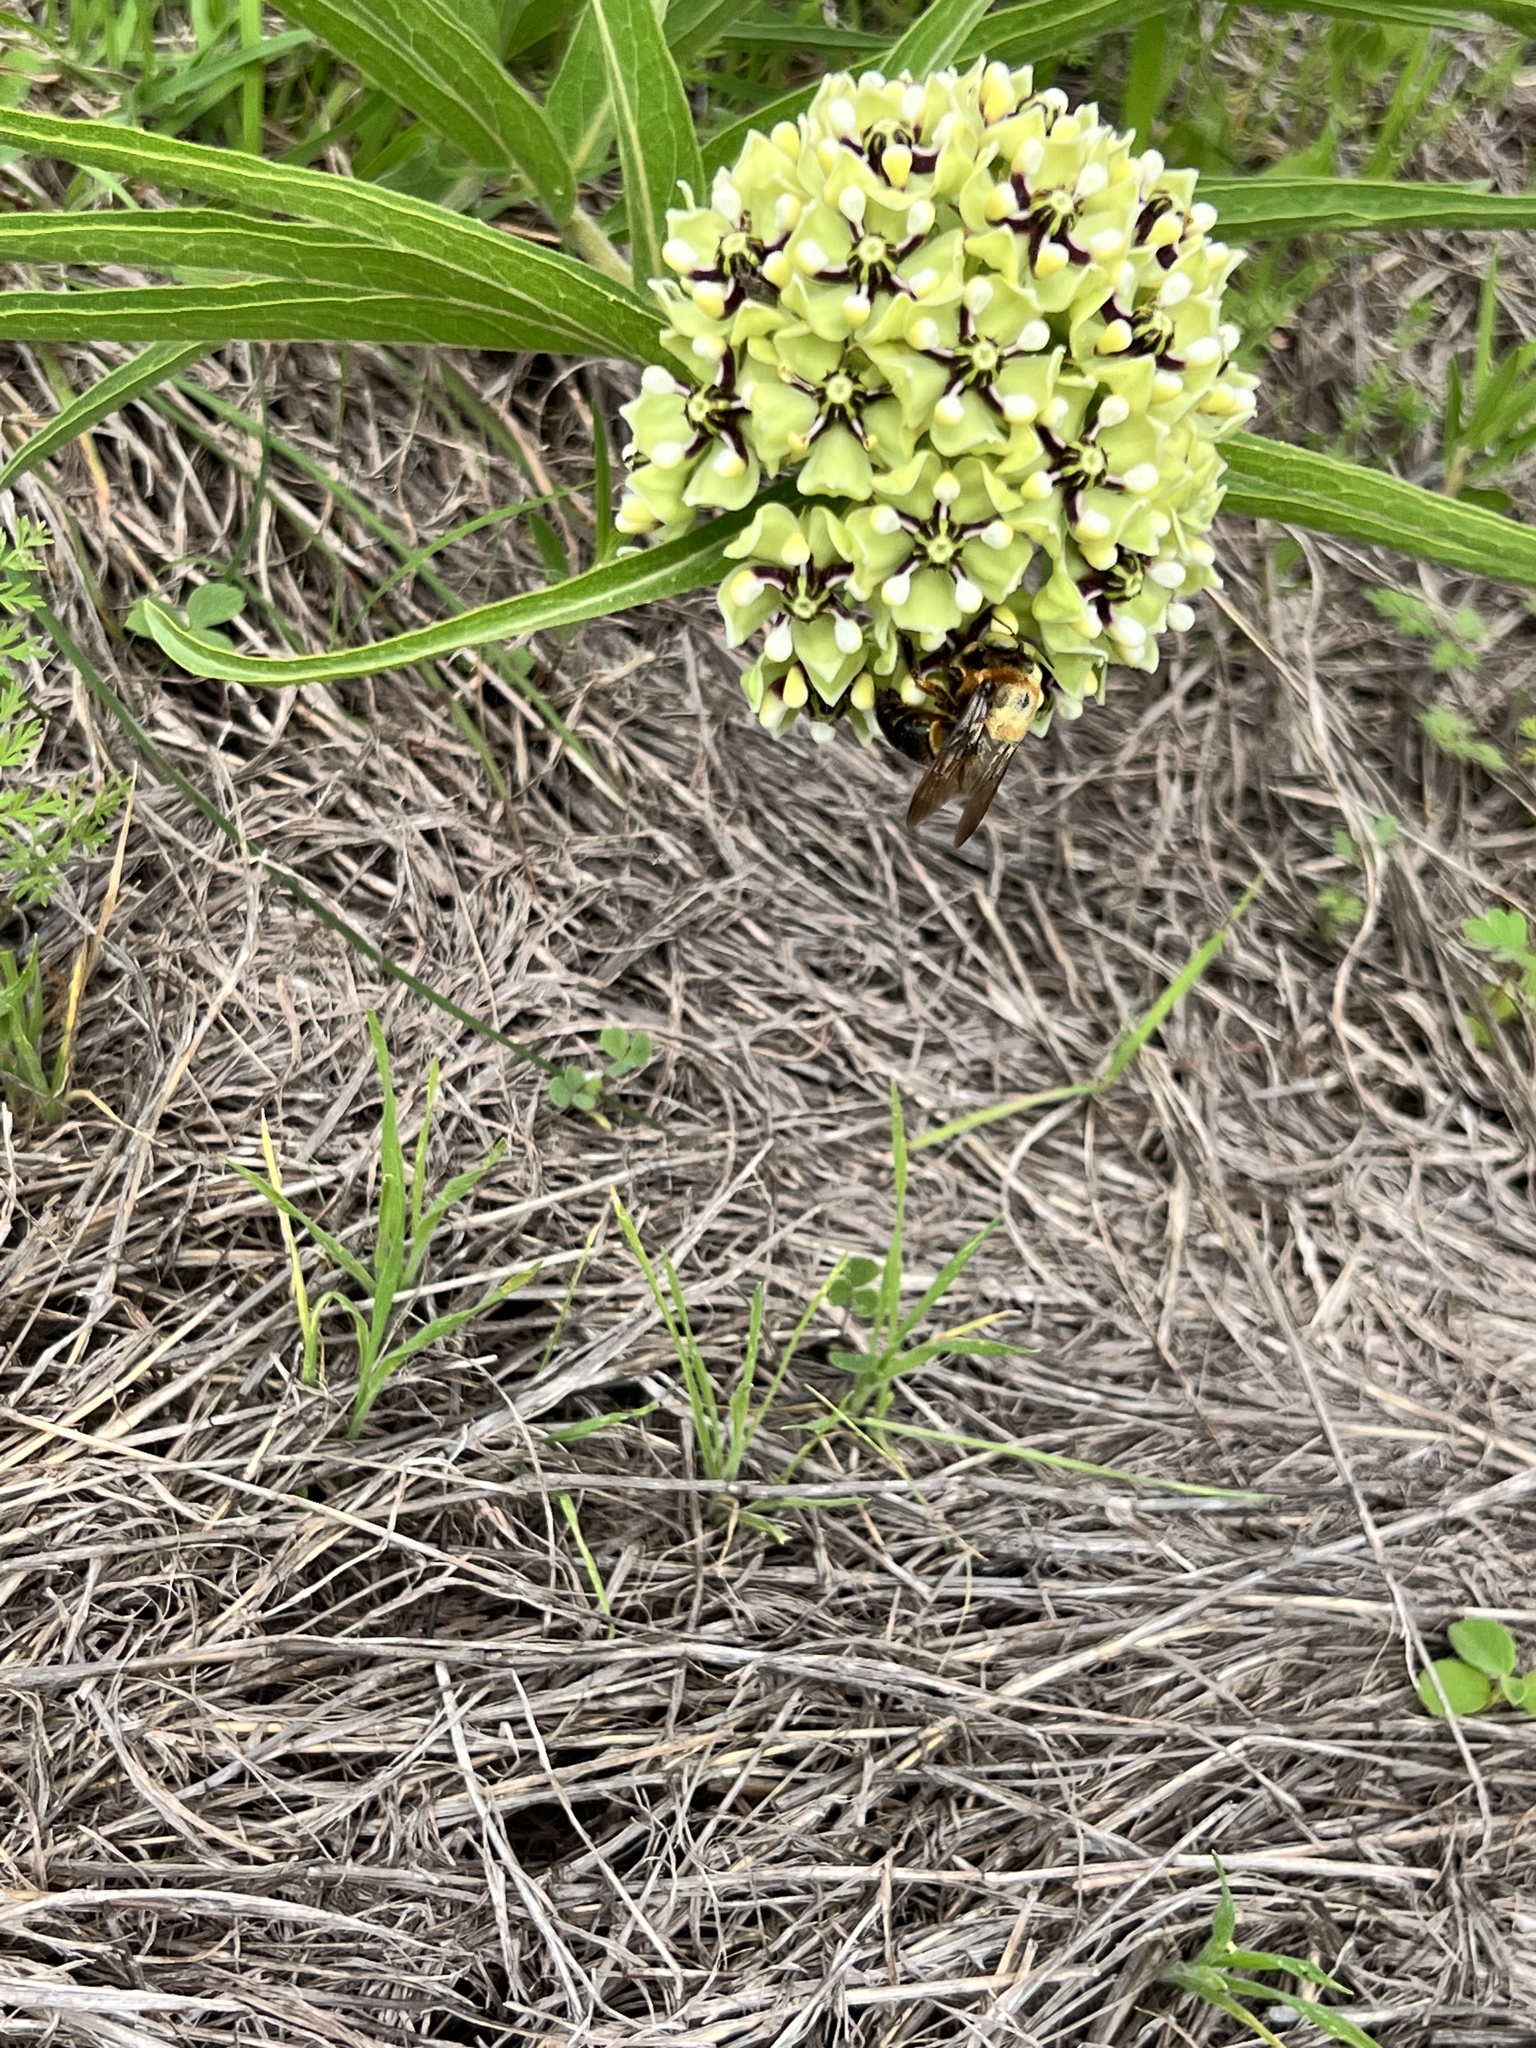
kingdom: Plantae
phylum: Tracheophyta
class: Magnoliopsida
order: Gentianales
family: Apocynaceae
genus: Asclepias
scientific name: Asclepias asperula
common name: Antelope horns
